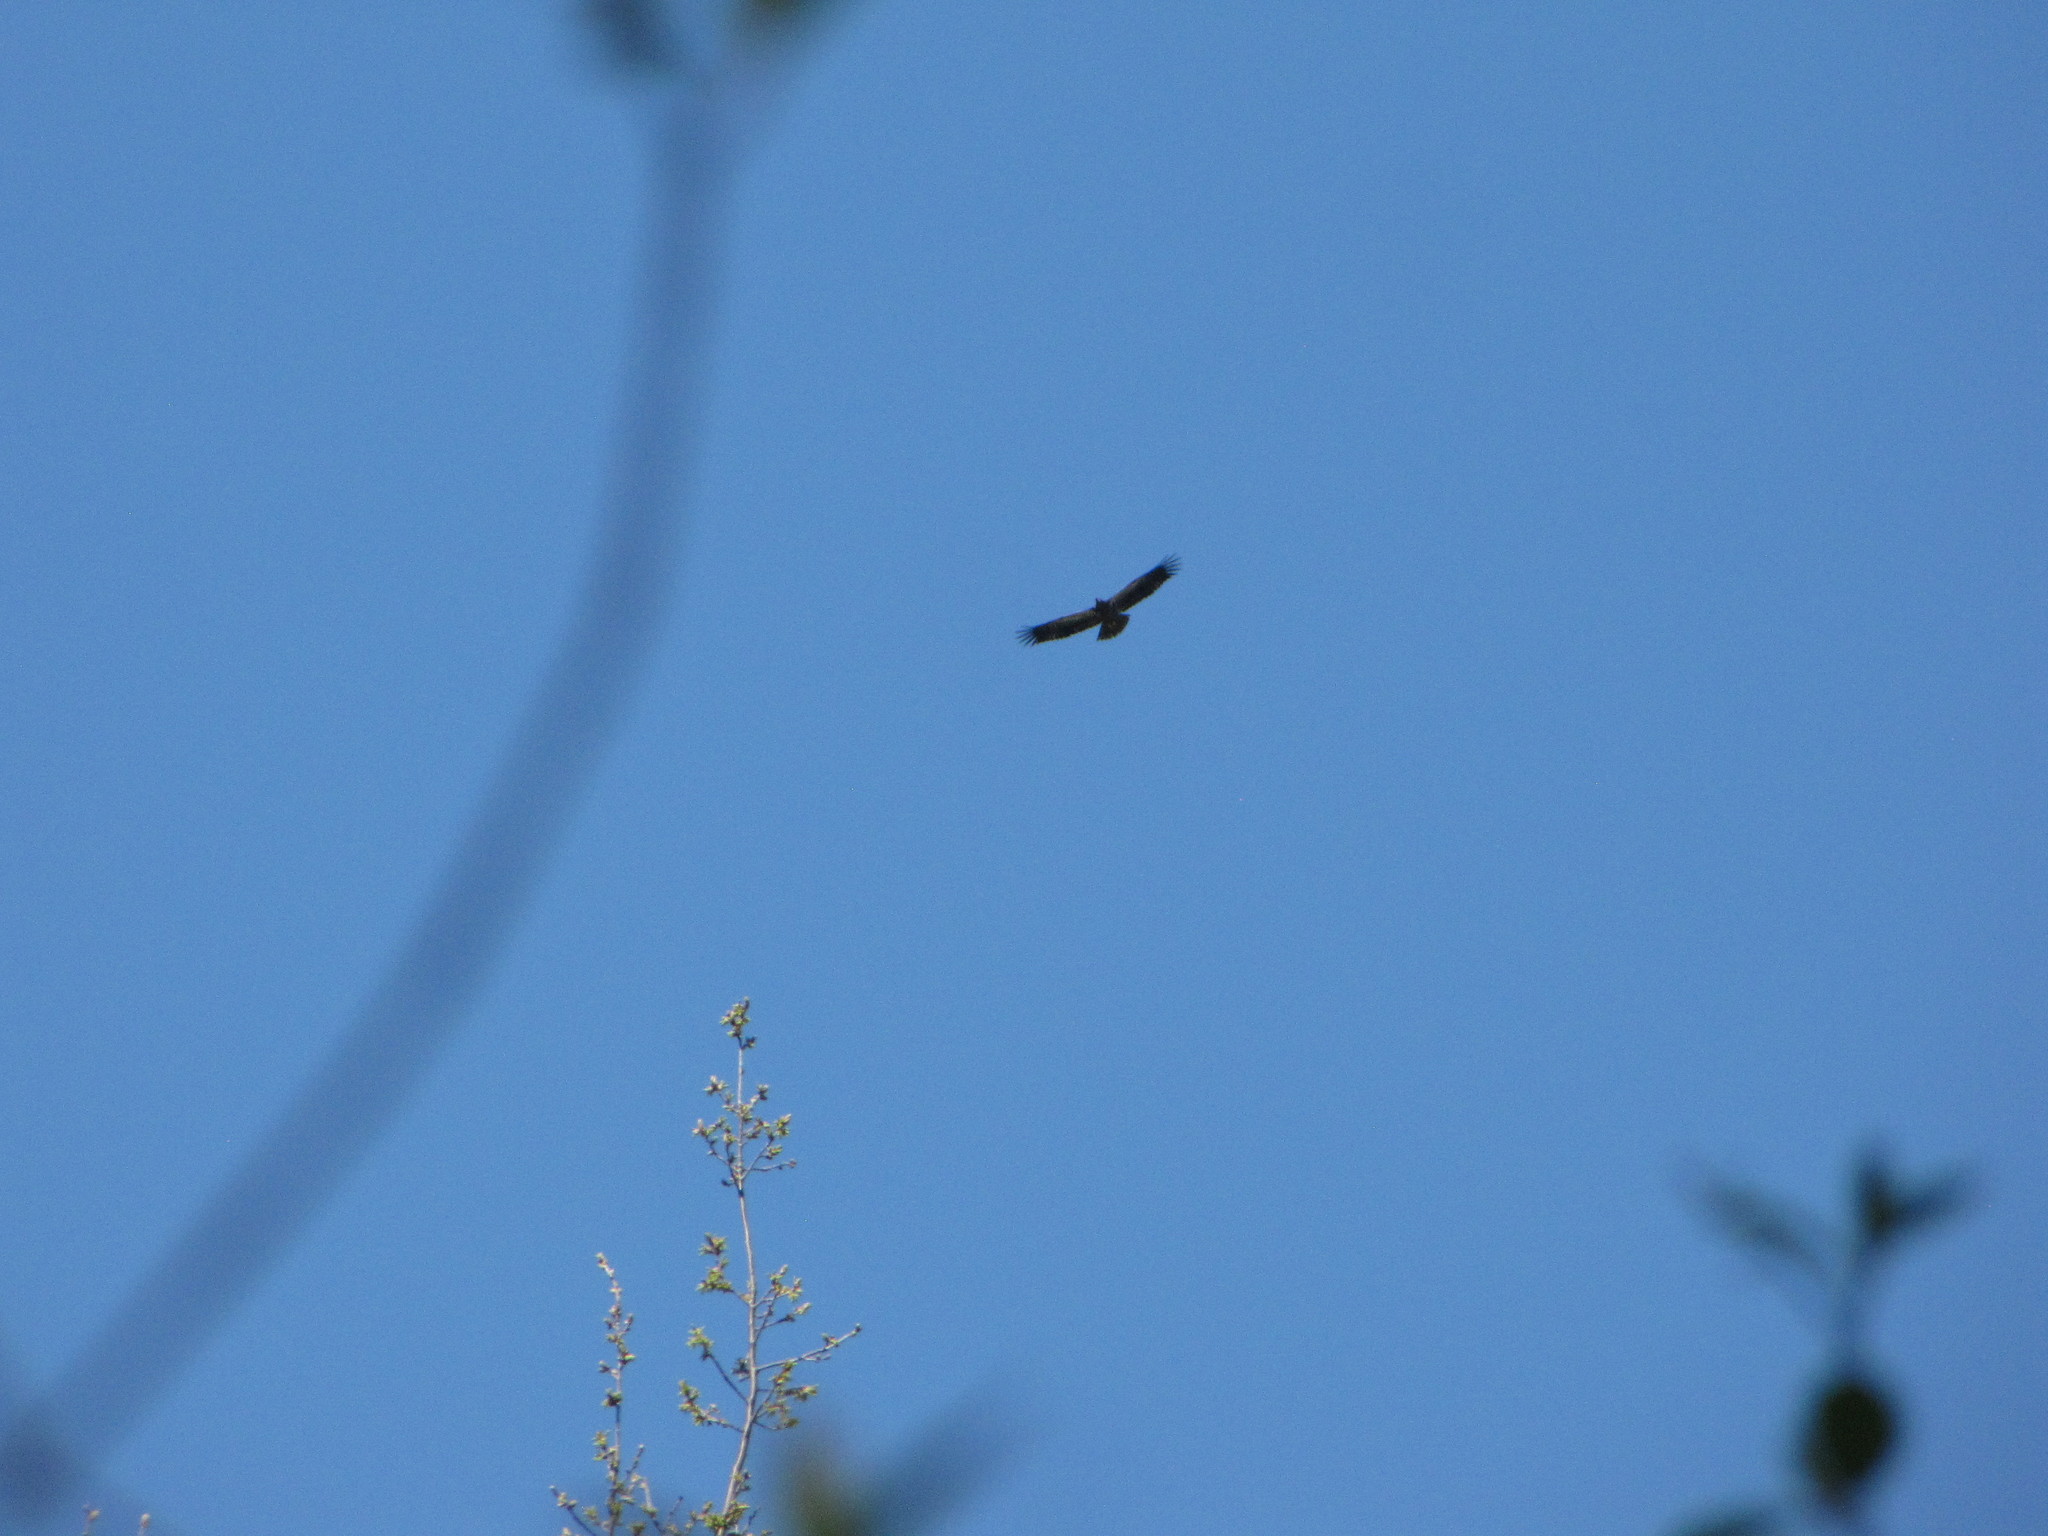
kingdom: Animalia
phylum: Chordata
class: Aves
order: Accipitriformes
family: Accipitridae
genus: Haliaeetus
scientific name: Haliaeetus leucocephalus
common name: Bald eagle
